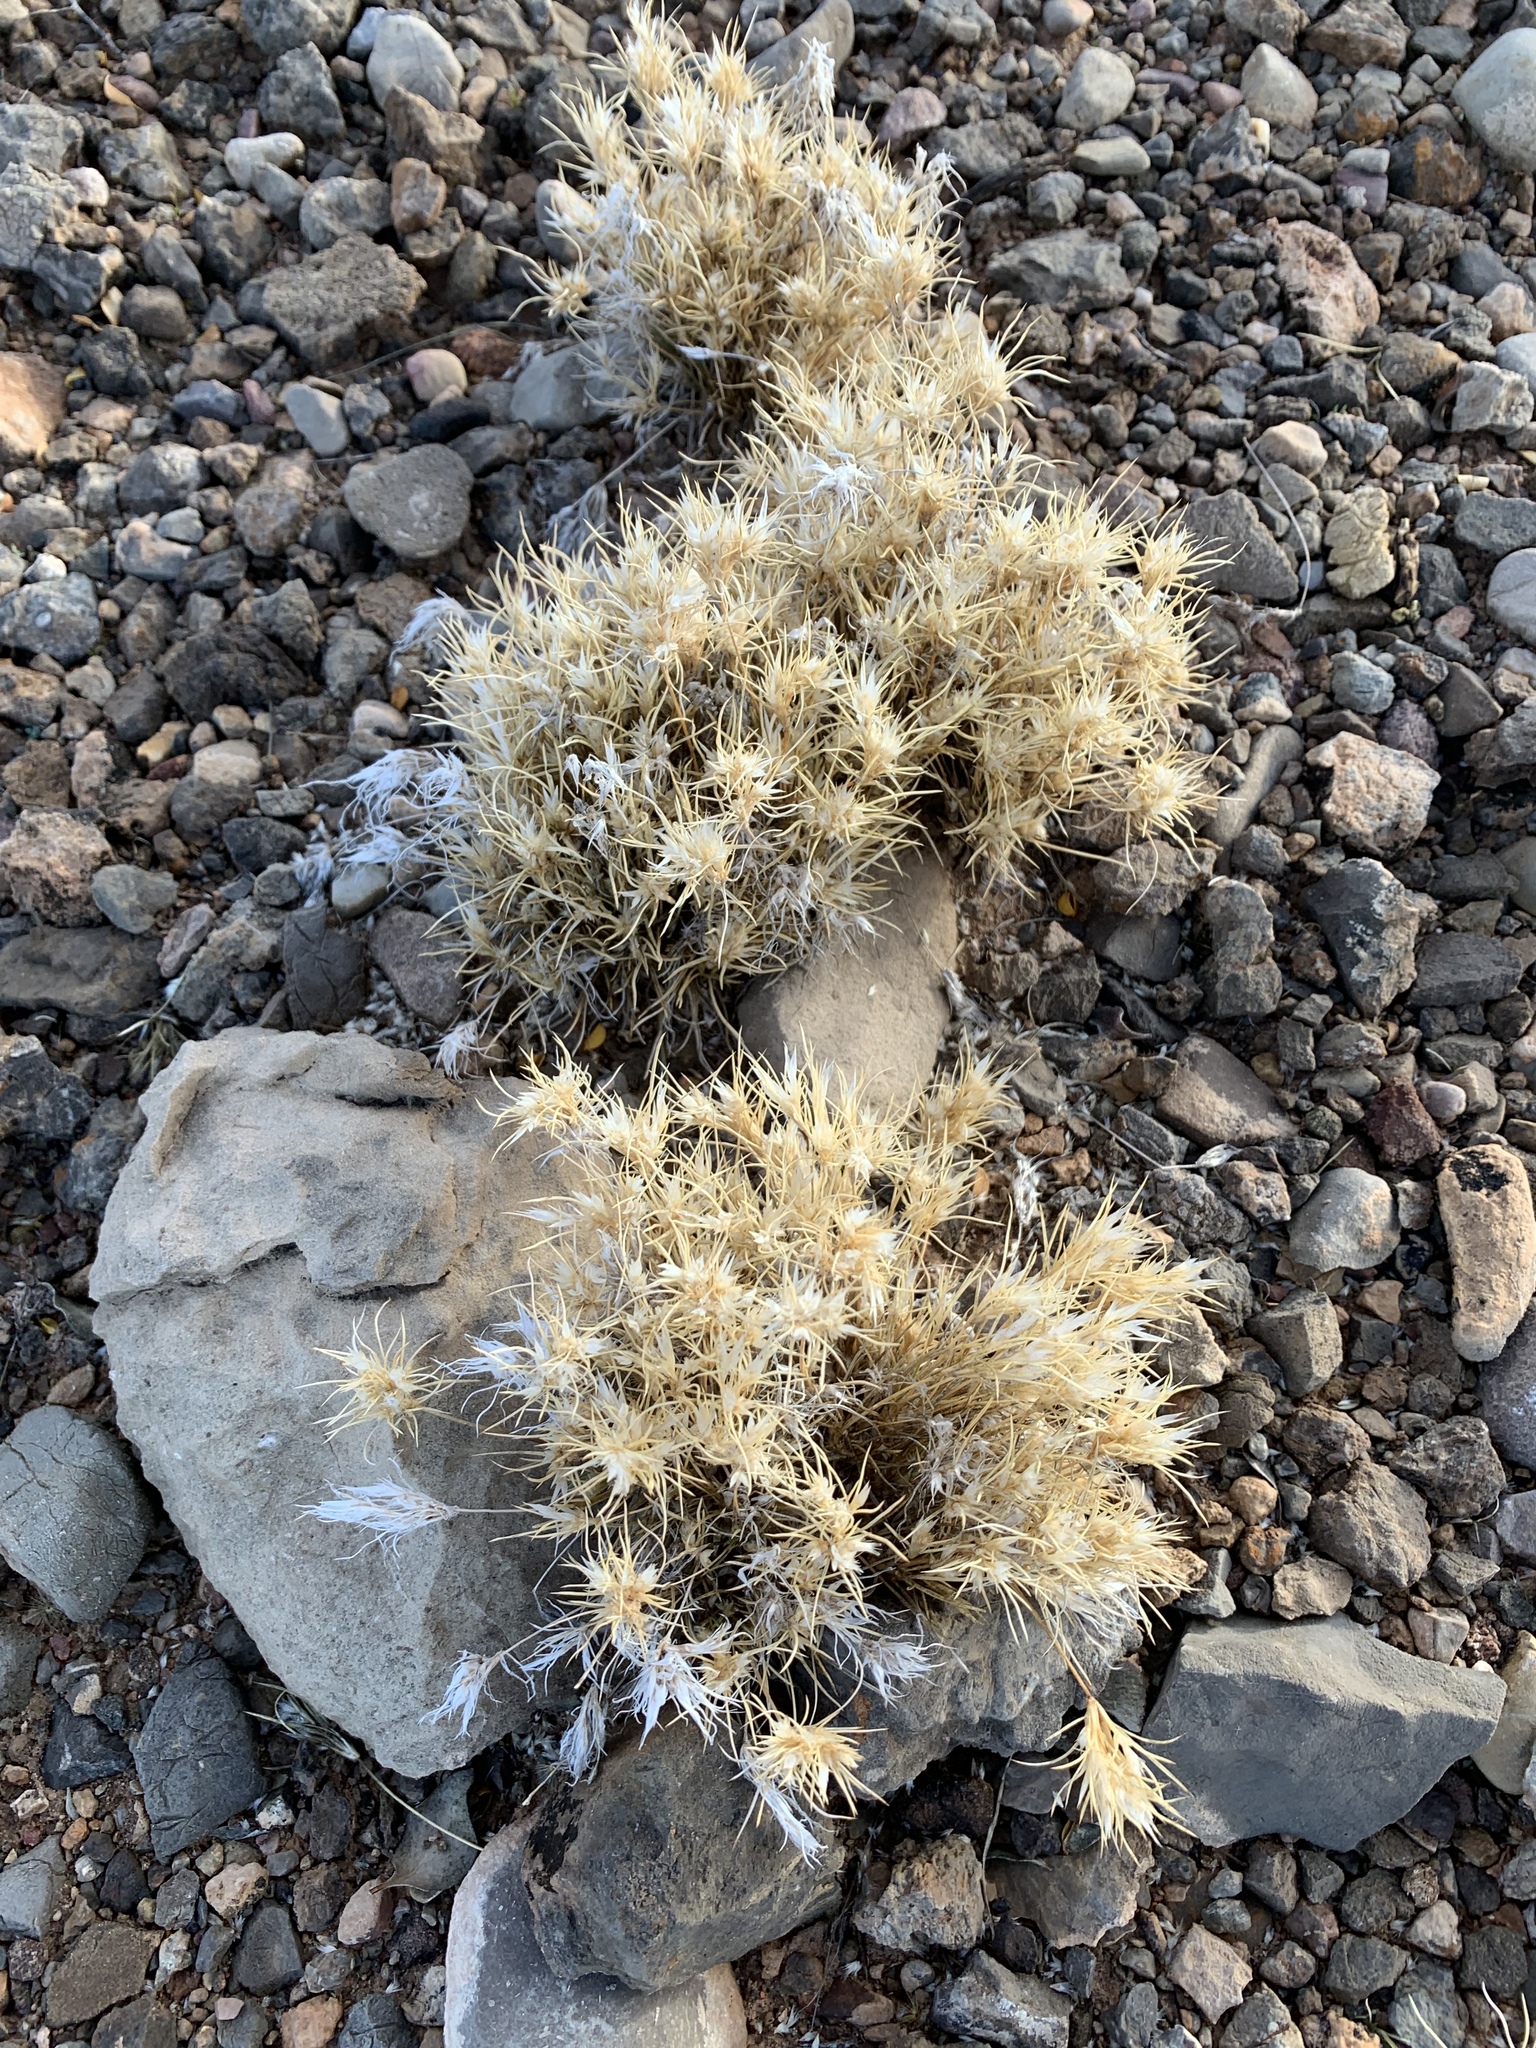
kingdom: Plantae
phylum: Tracheophyta
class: Liliopsida
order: Poales
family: Poaceae
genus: Dasyochloa
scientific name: Dasyochloa pulchella
